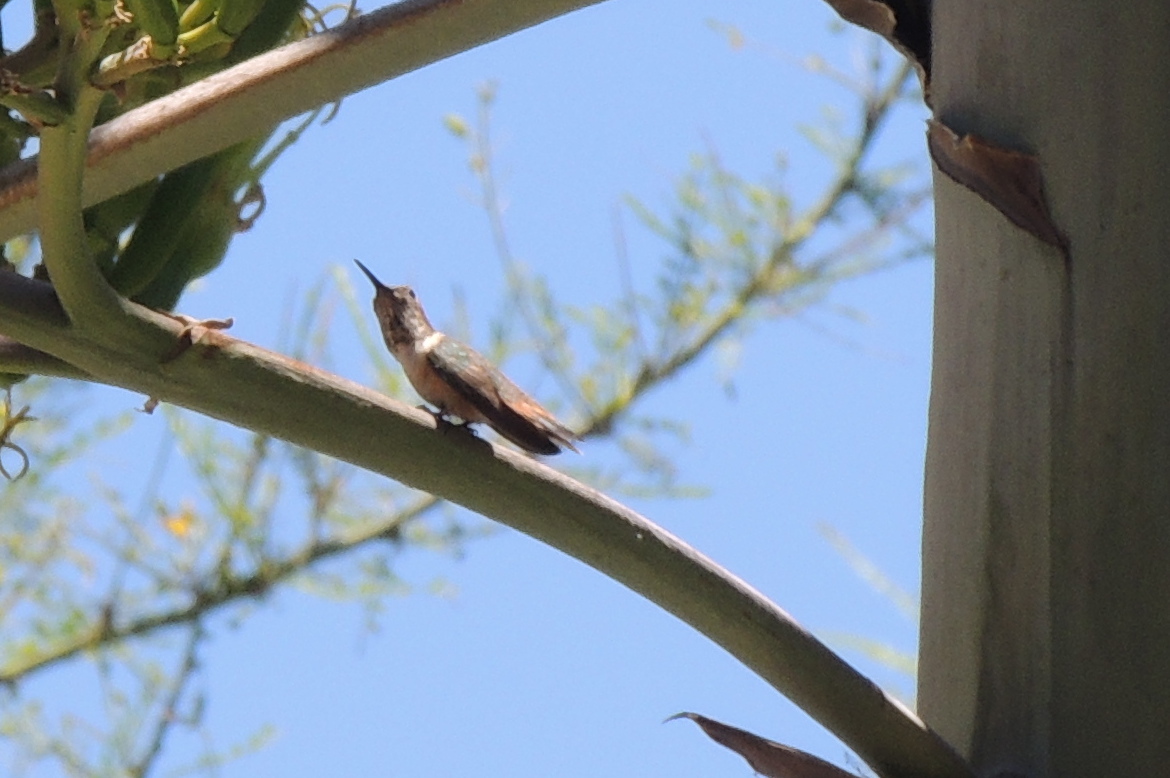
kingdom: Animalia
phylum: Chordata
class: Aves
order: Apodiformes
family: Trochilidae
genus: Selasphorus
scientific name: Selasphorus
